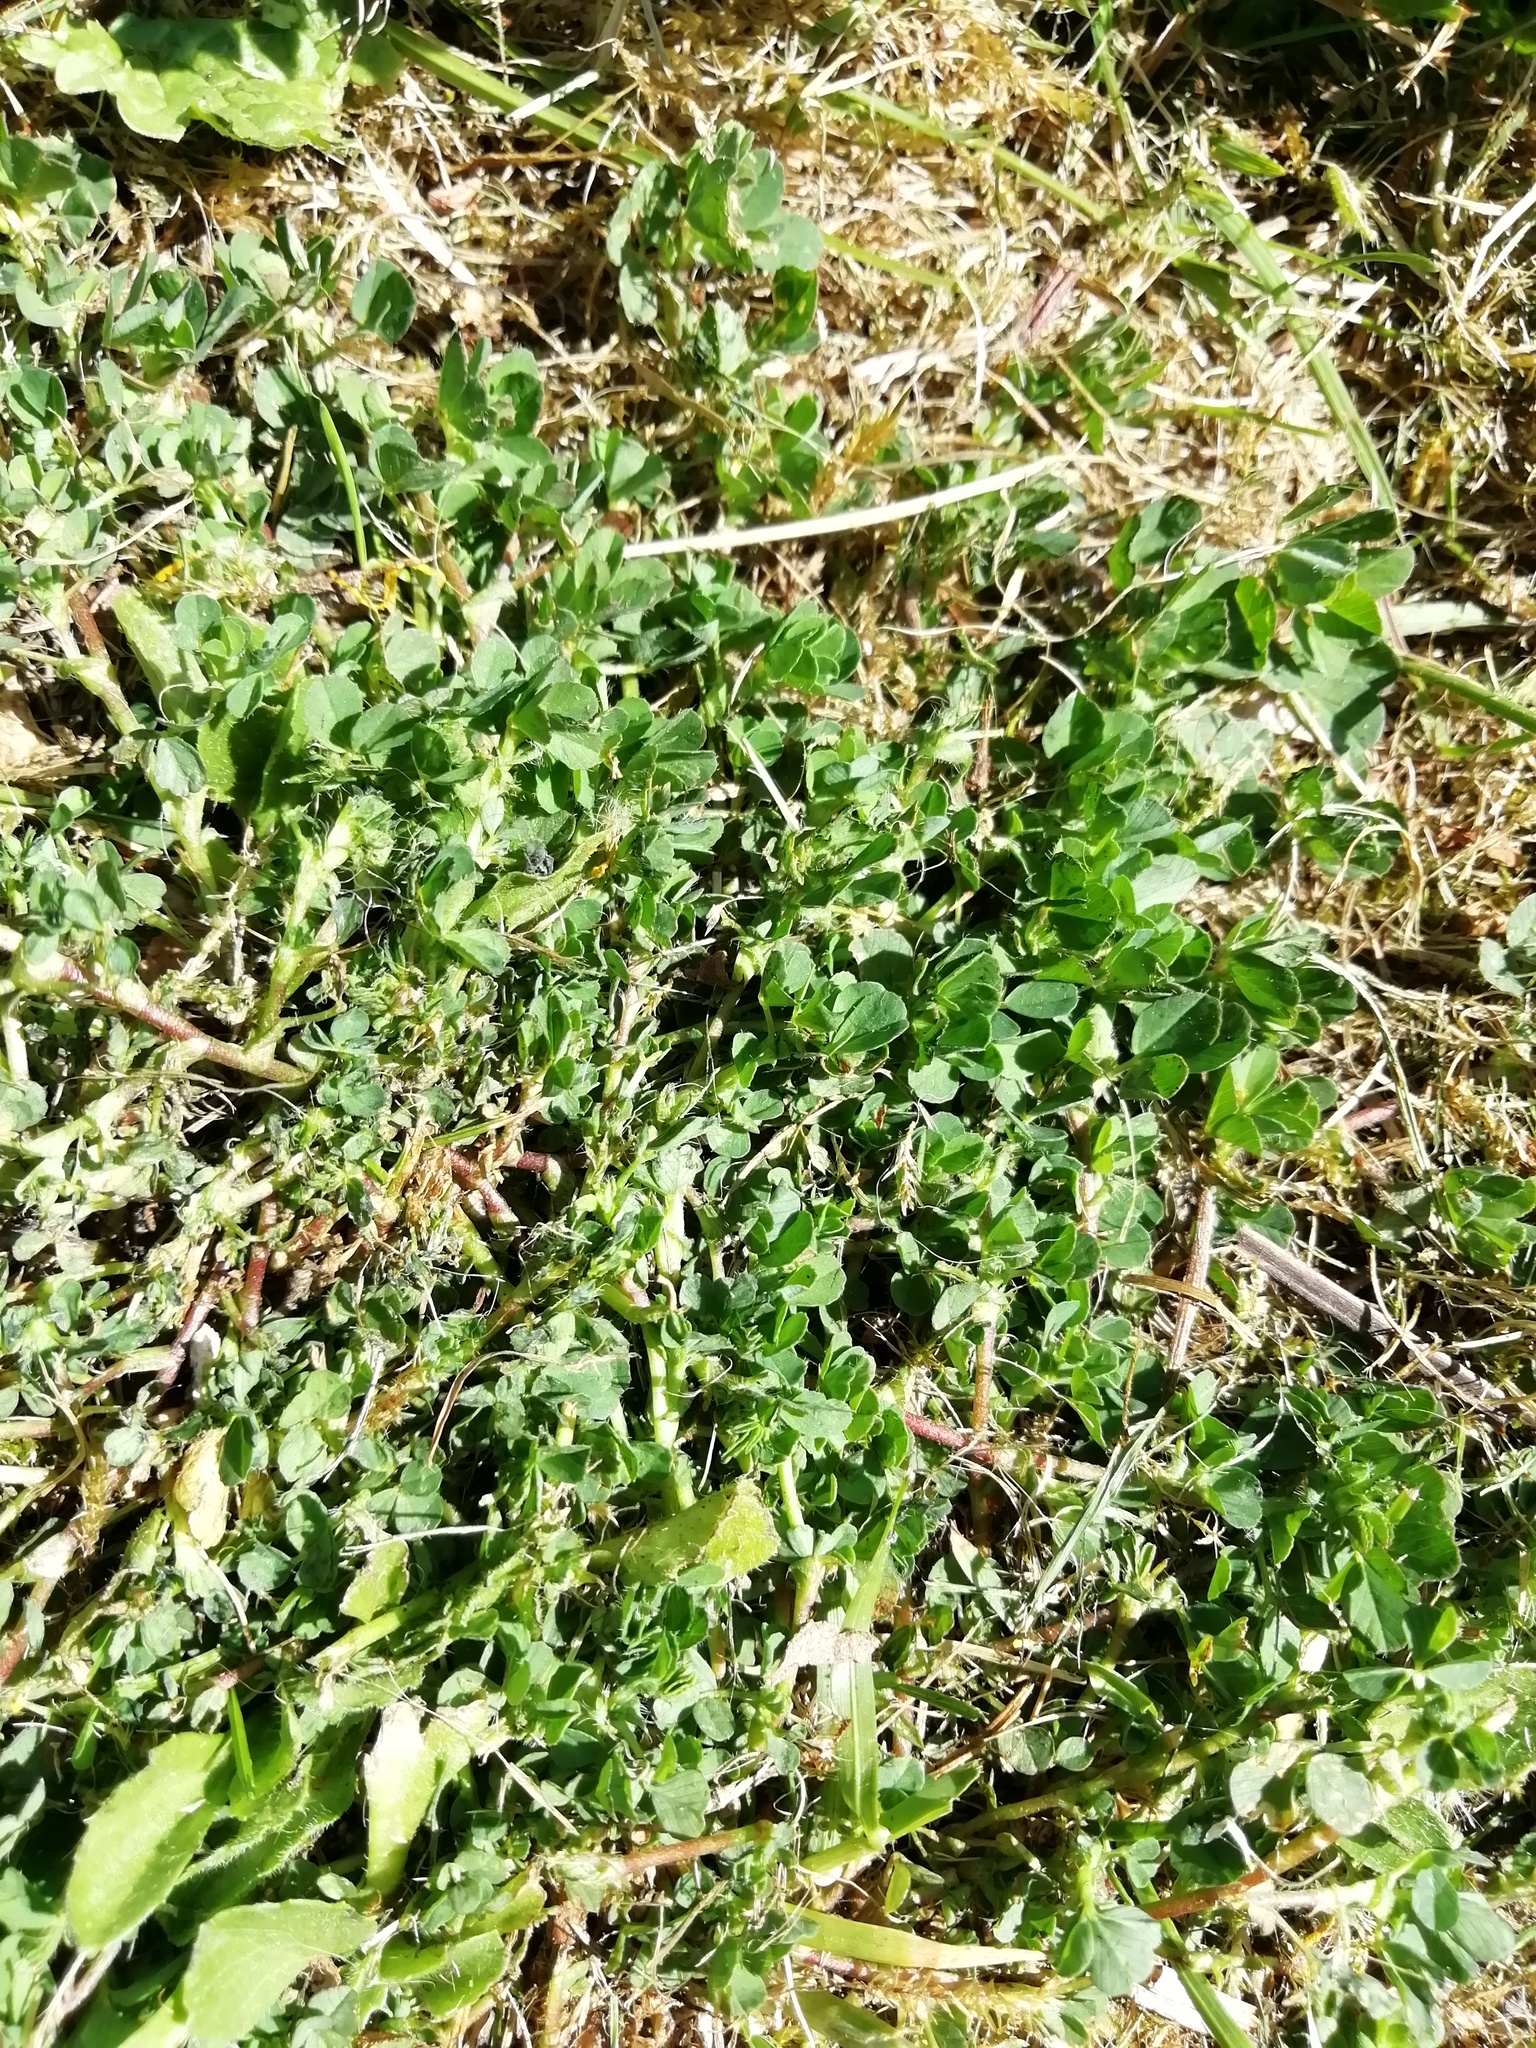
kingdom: Plantae
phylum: Tracheophyta
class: Magnoliopsida
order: Fabales
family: Fabaceae
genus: Medicago
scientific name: Medicago lupulina
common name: Black medick
